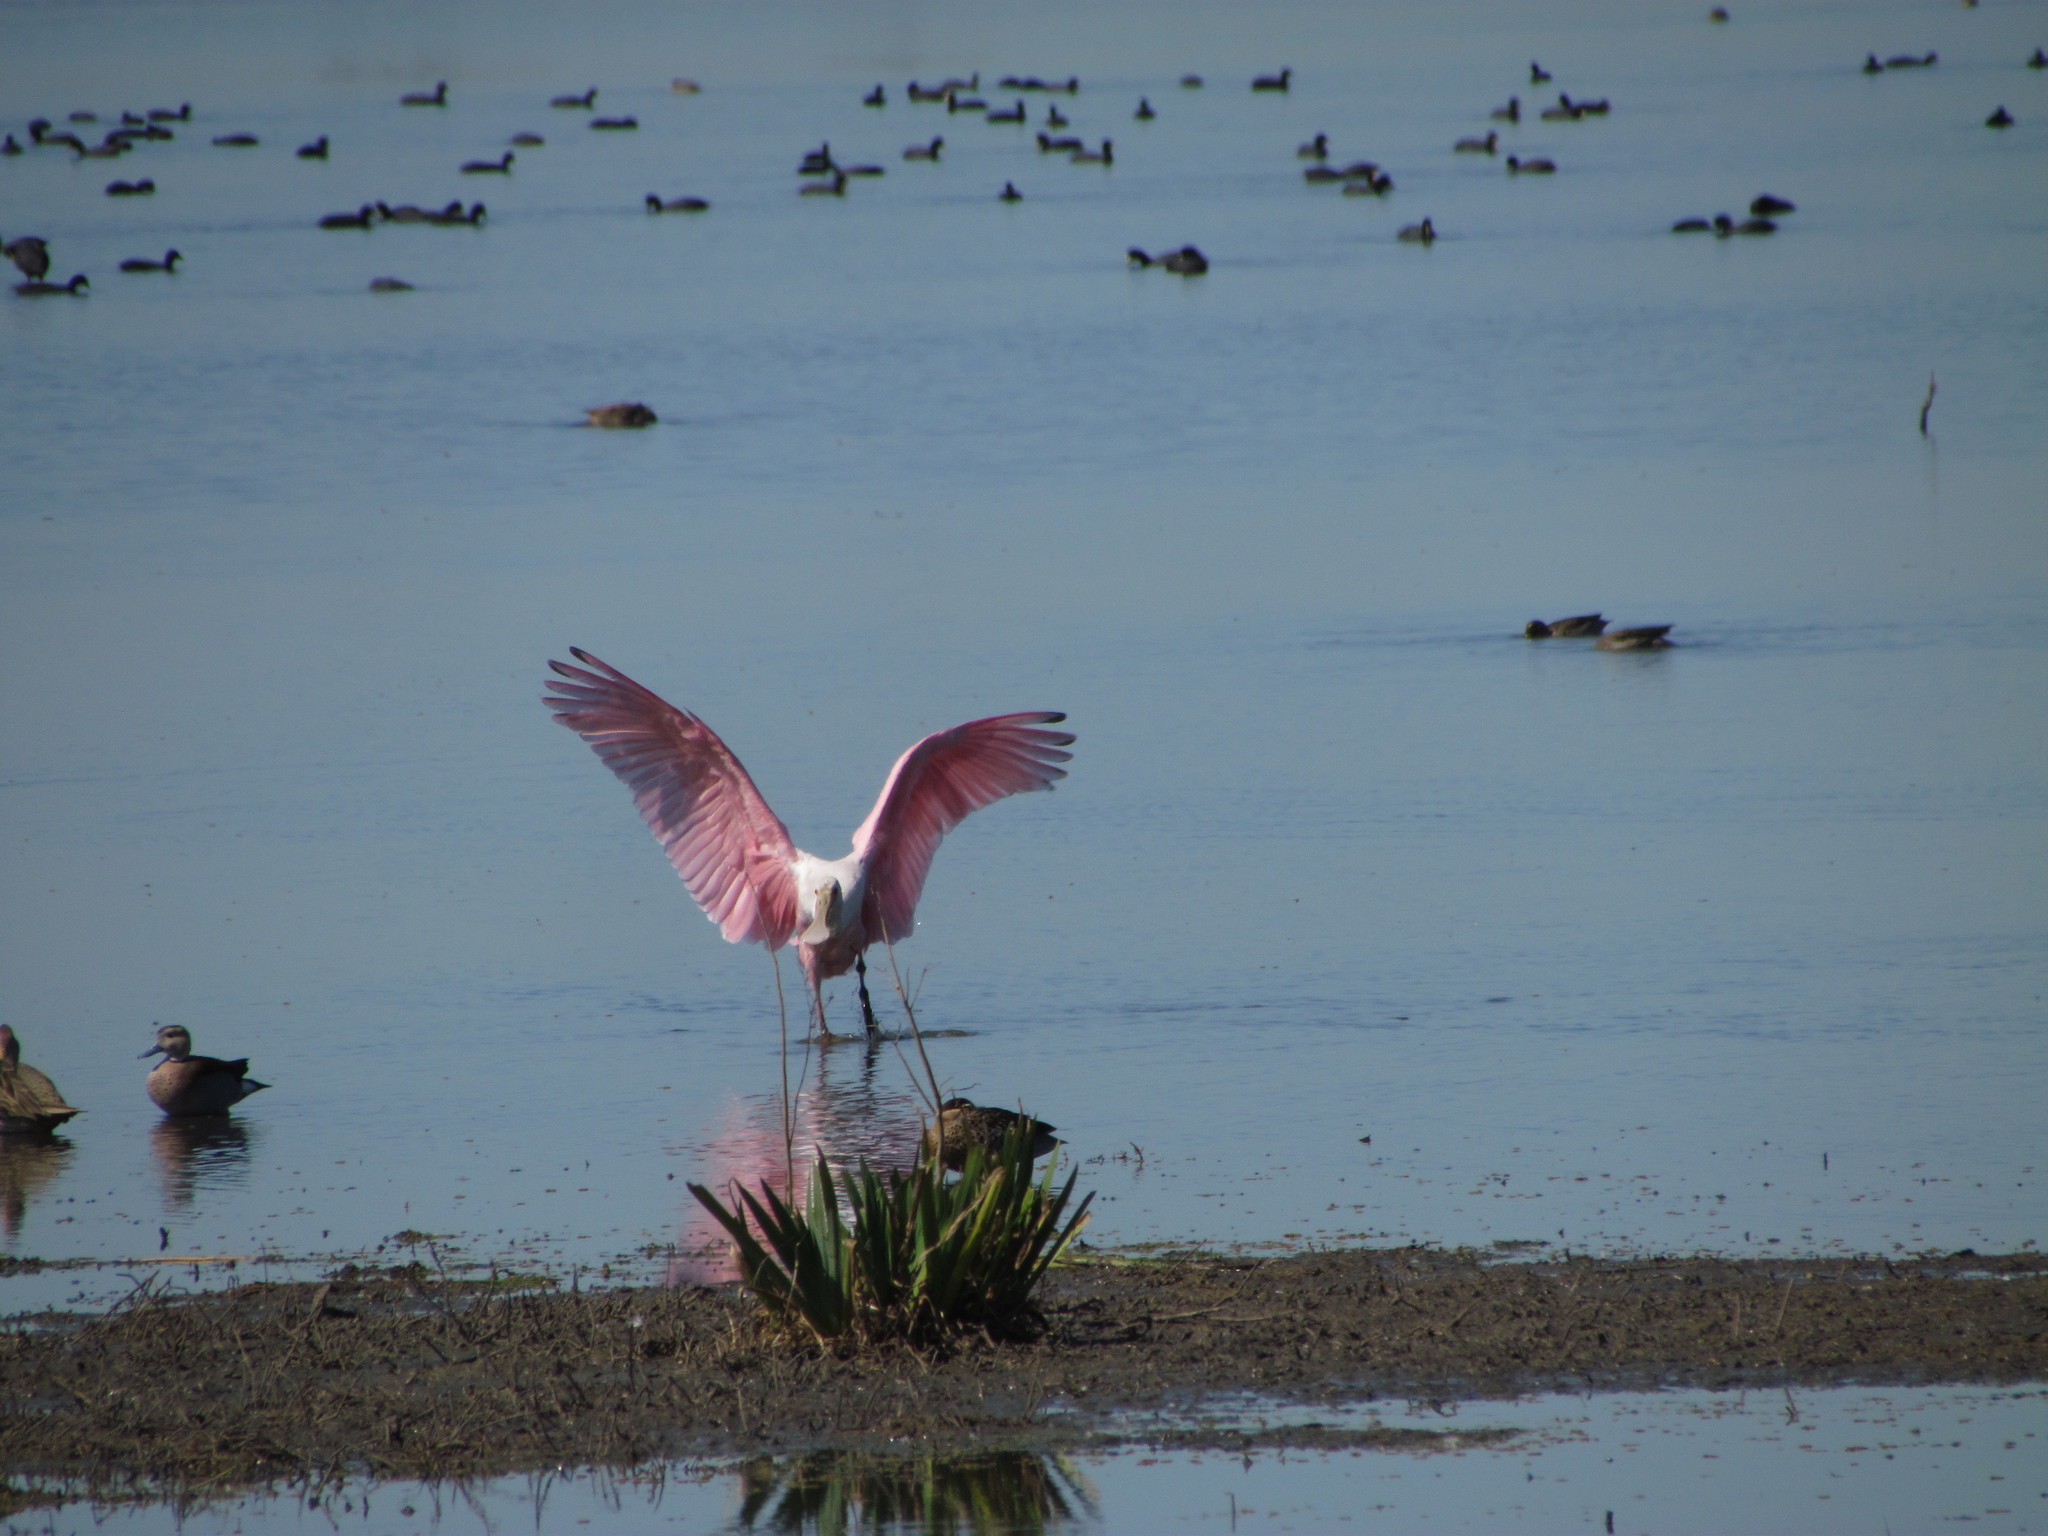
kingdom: Animalia
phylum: Chordata
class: Aves
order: Pelecaniformes
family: Threskiornithidae
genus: Platalea
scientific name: Platalea ajaja
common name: Roseate spoonbill
